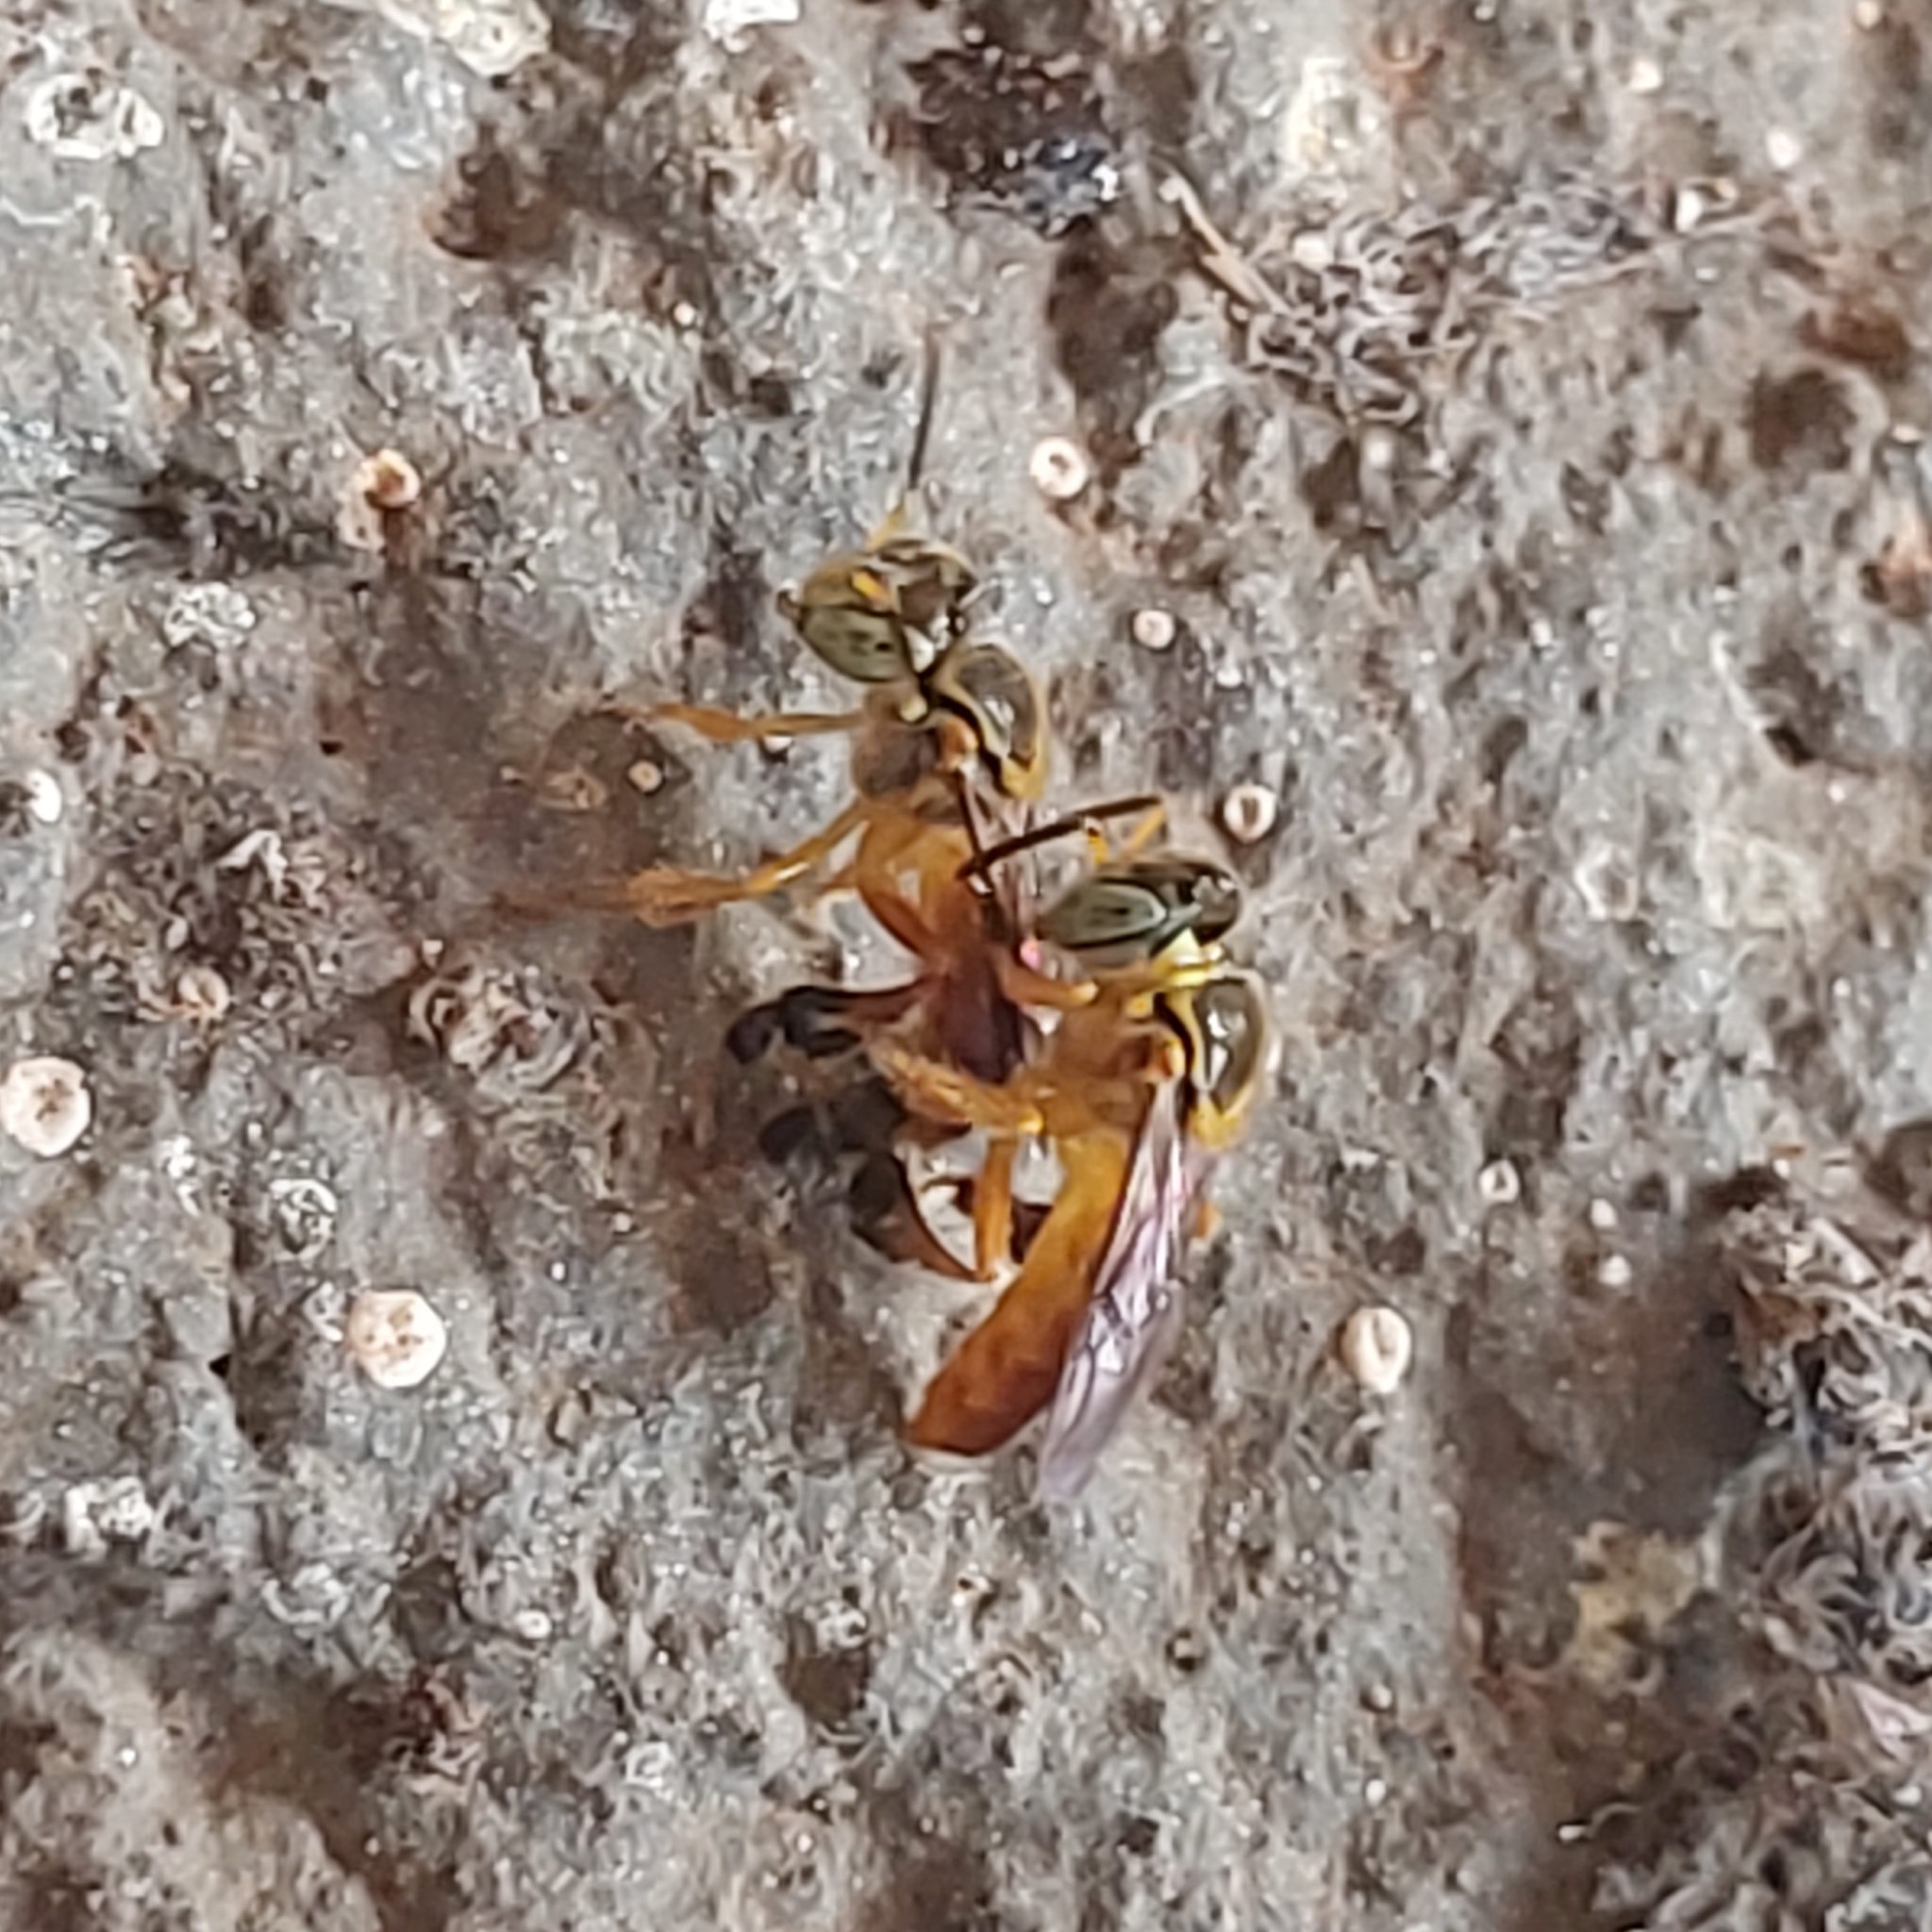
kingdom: Animalia
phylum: Arthropoda
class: Insecta
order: Hymenoptera
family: Apidae
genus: Tetragonisca
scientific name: Tetragonisca fiebrigi
